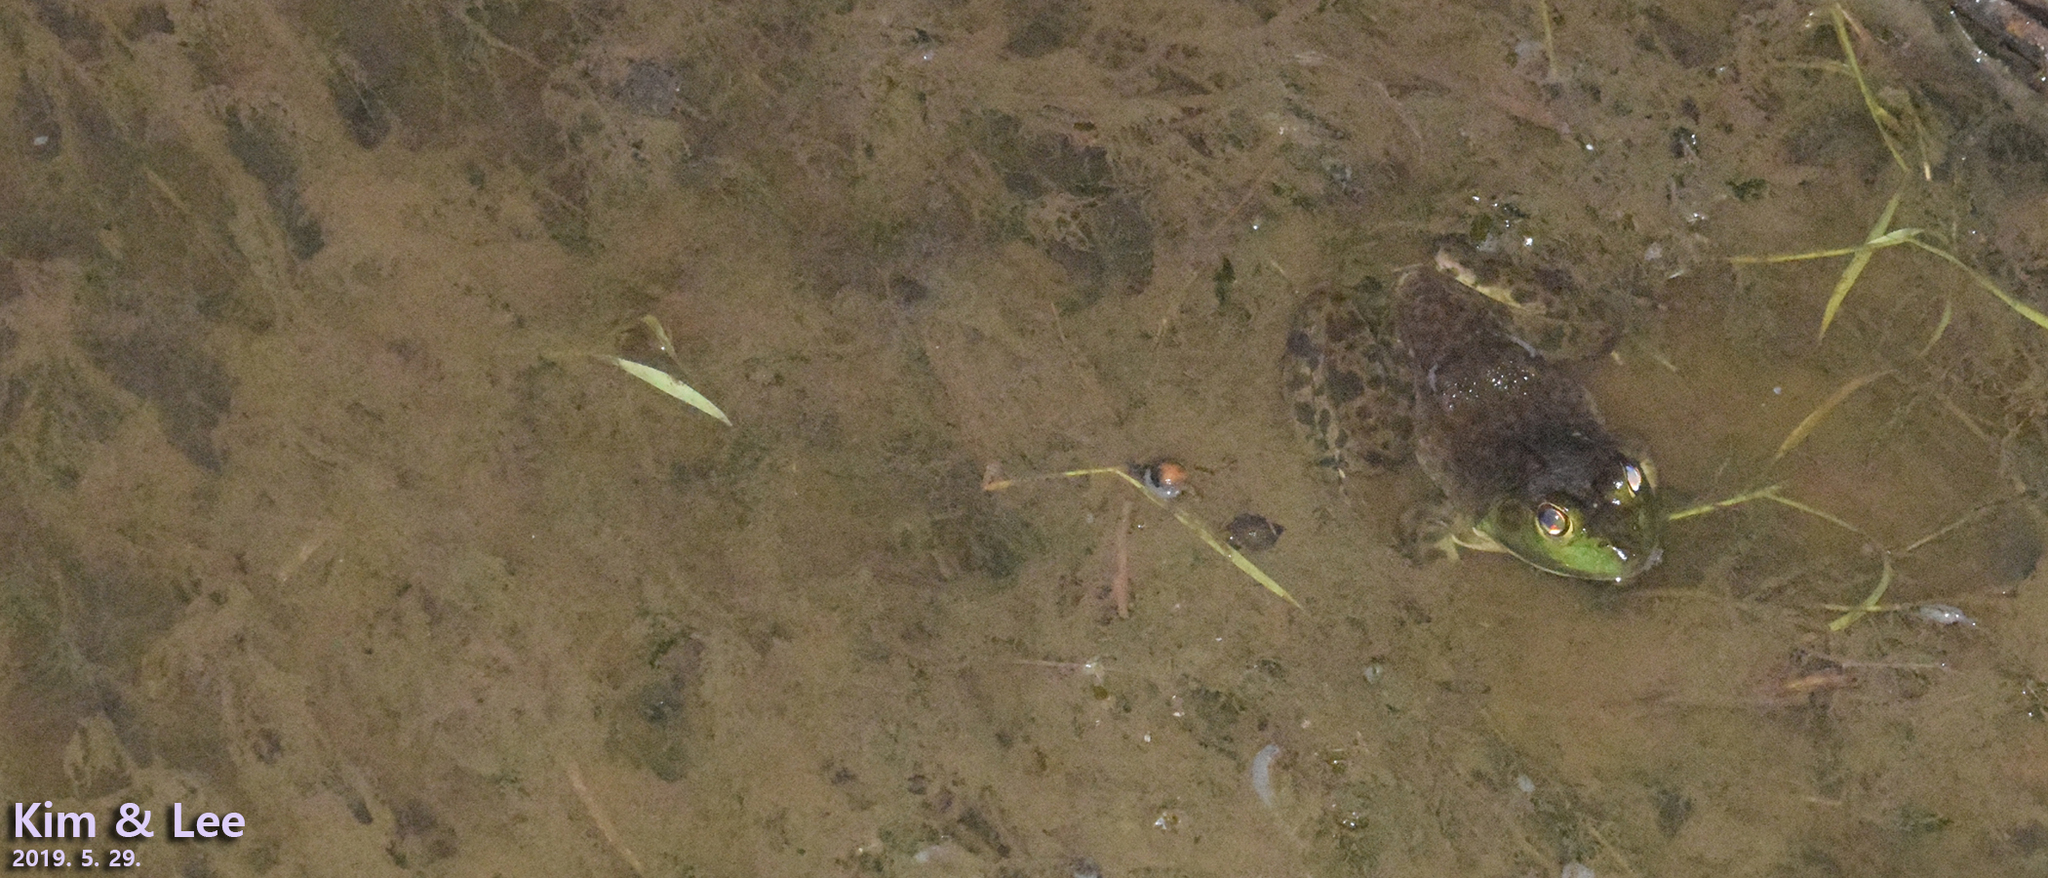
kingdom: Animalia
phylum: Chordata
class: Amphibia
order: Anura
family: Ranidae
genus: Lithobates
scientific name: Lithobates catesbeianus
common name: American bullfrog
